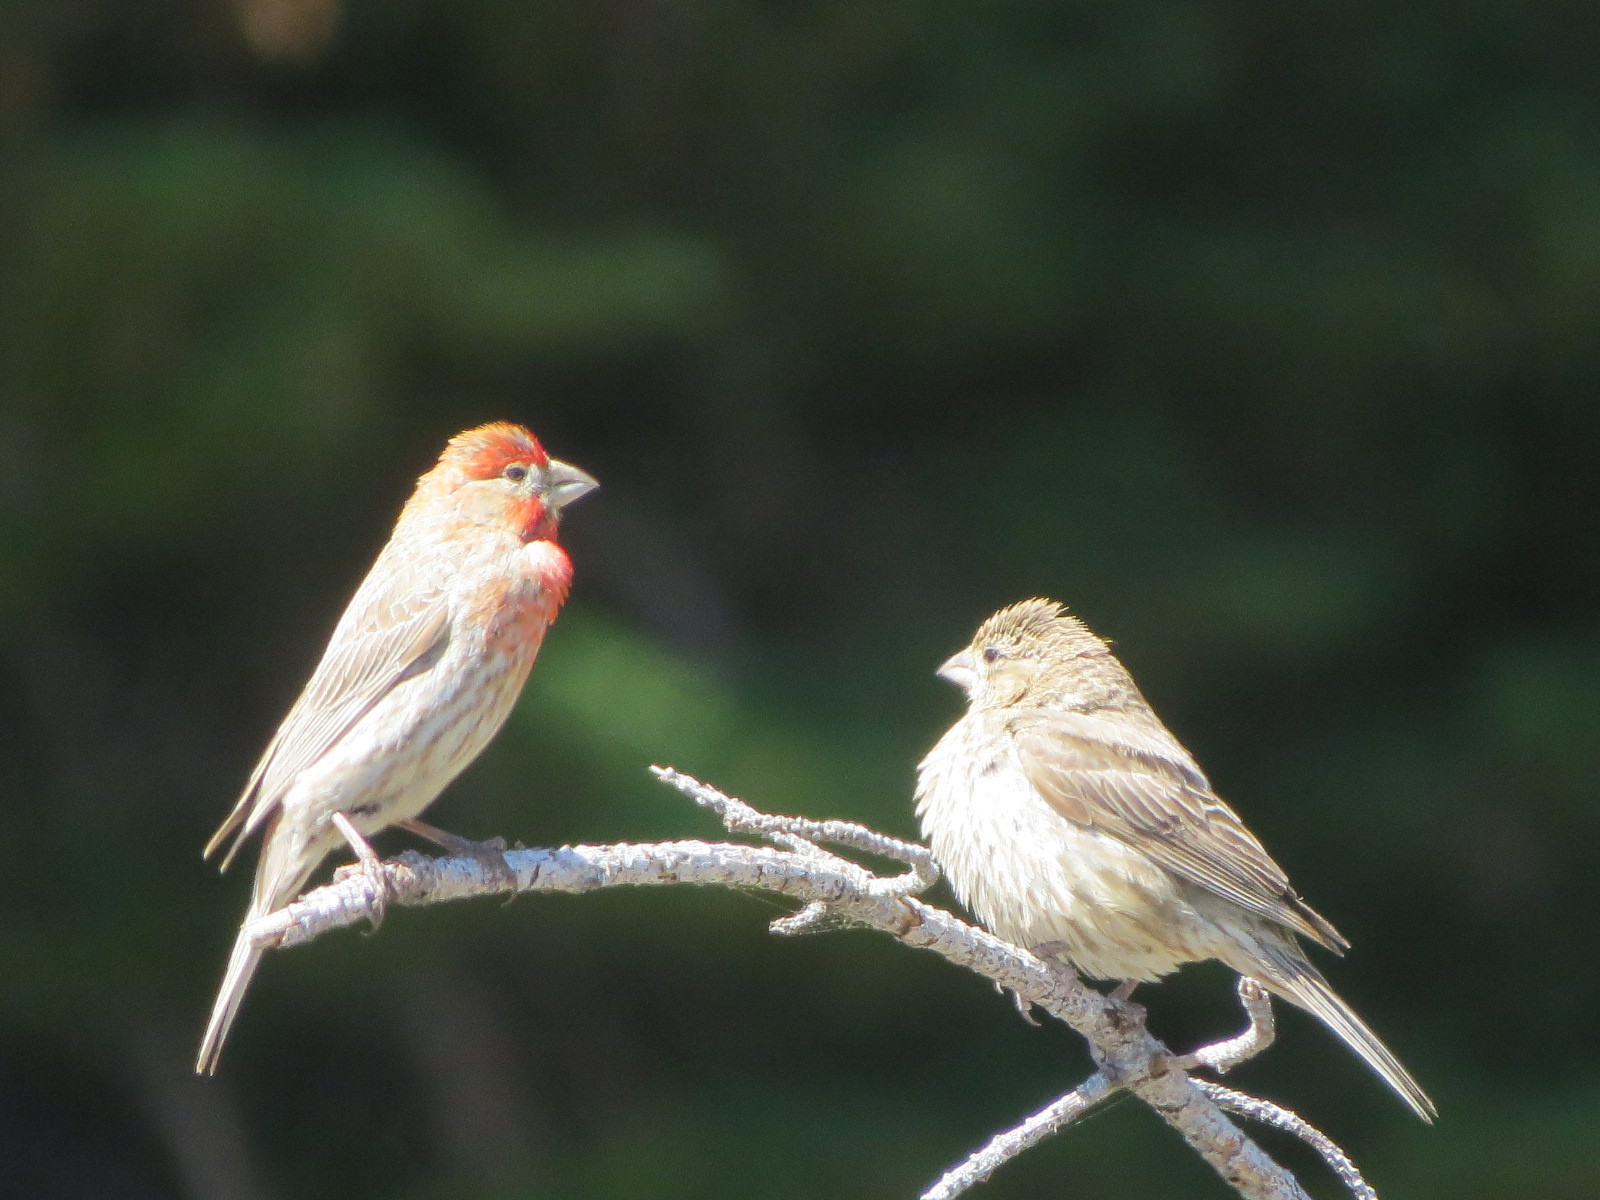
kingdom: Animalia
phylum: Chordata
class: Aves
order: Passeriformes
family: Fringillidae
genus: Haemorhous
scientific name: Haemorhous mexicanus
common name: House finch
